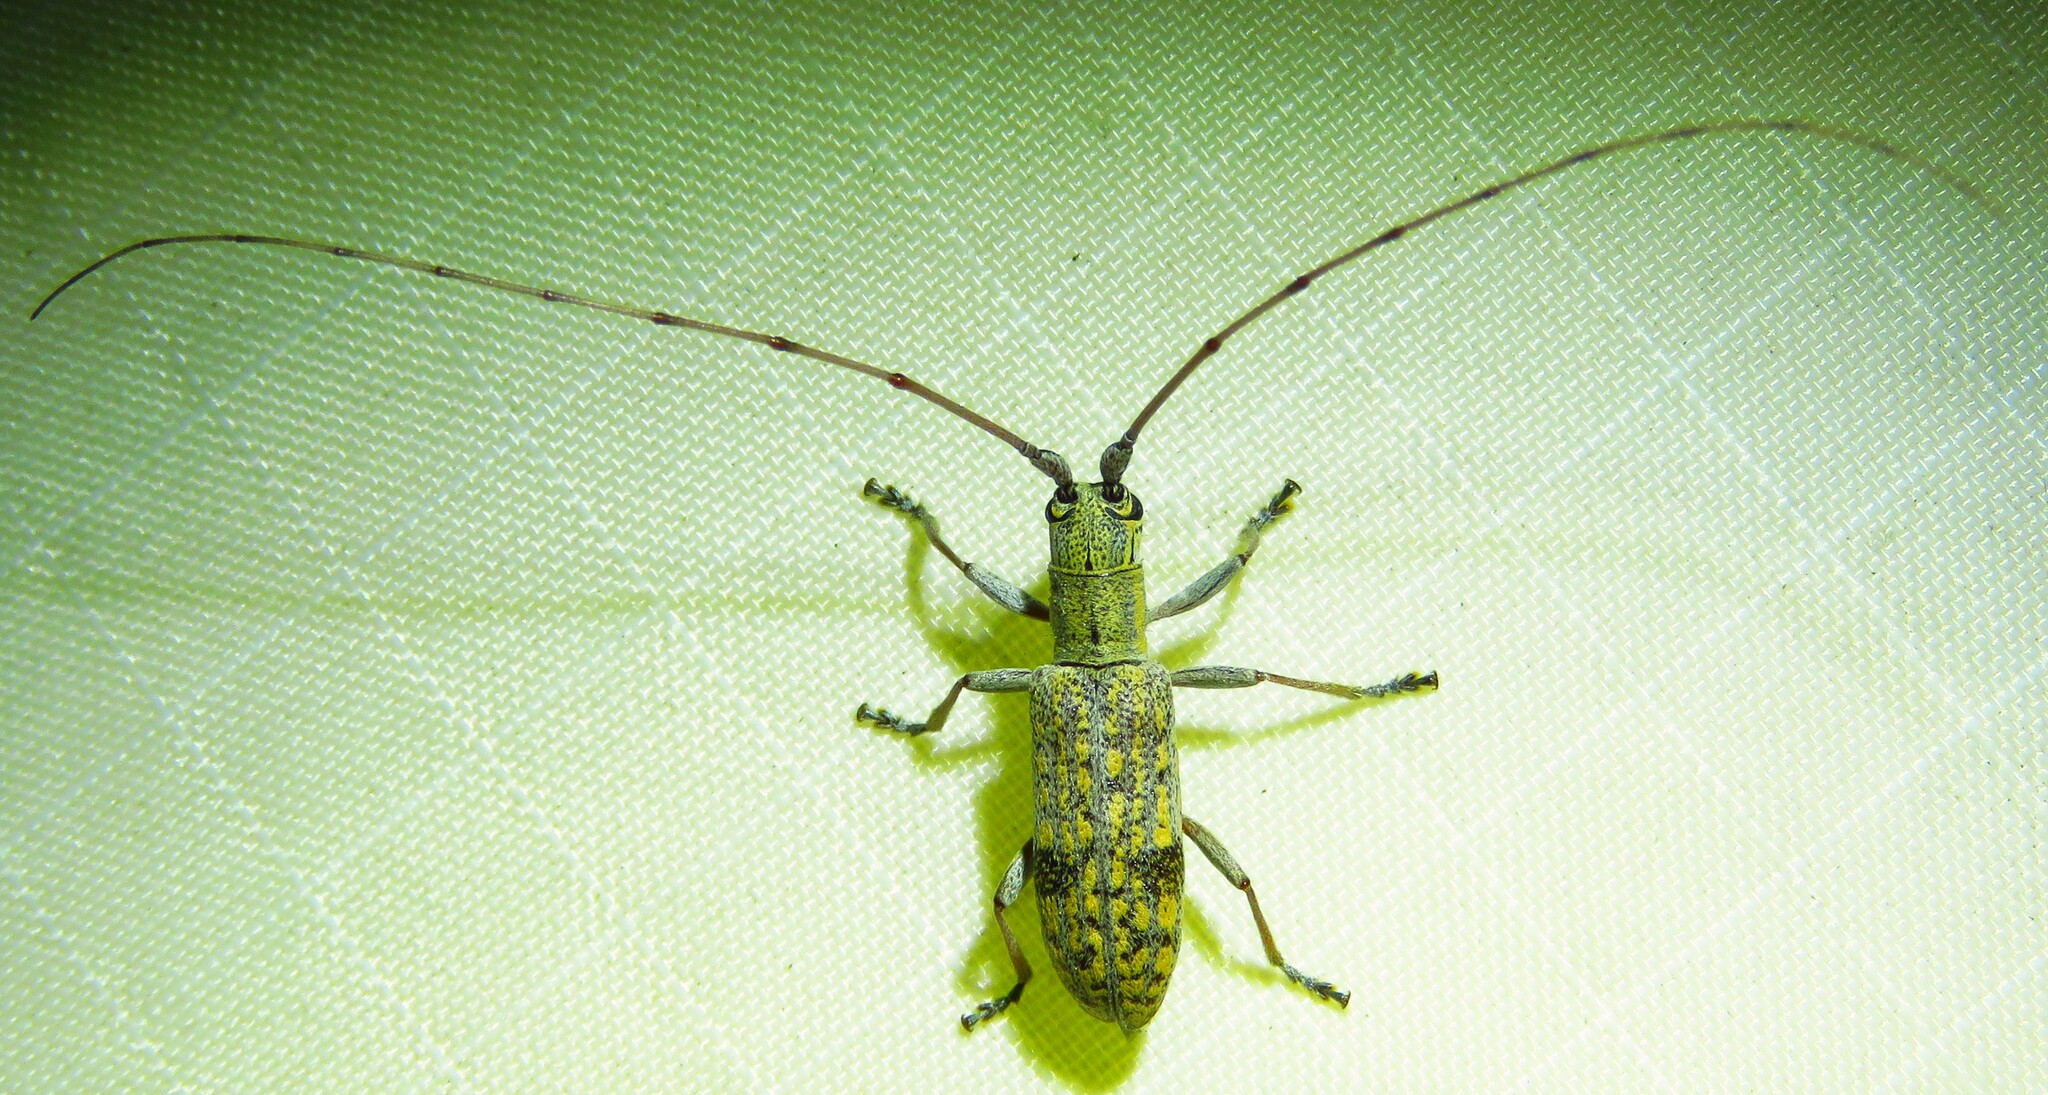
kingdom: Animalia
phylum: Arthropoda
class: Insecta
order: Coleoptera
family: Cerambycidae
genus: Dorcaschema
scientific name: Dorcaschema alternatum
